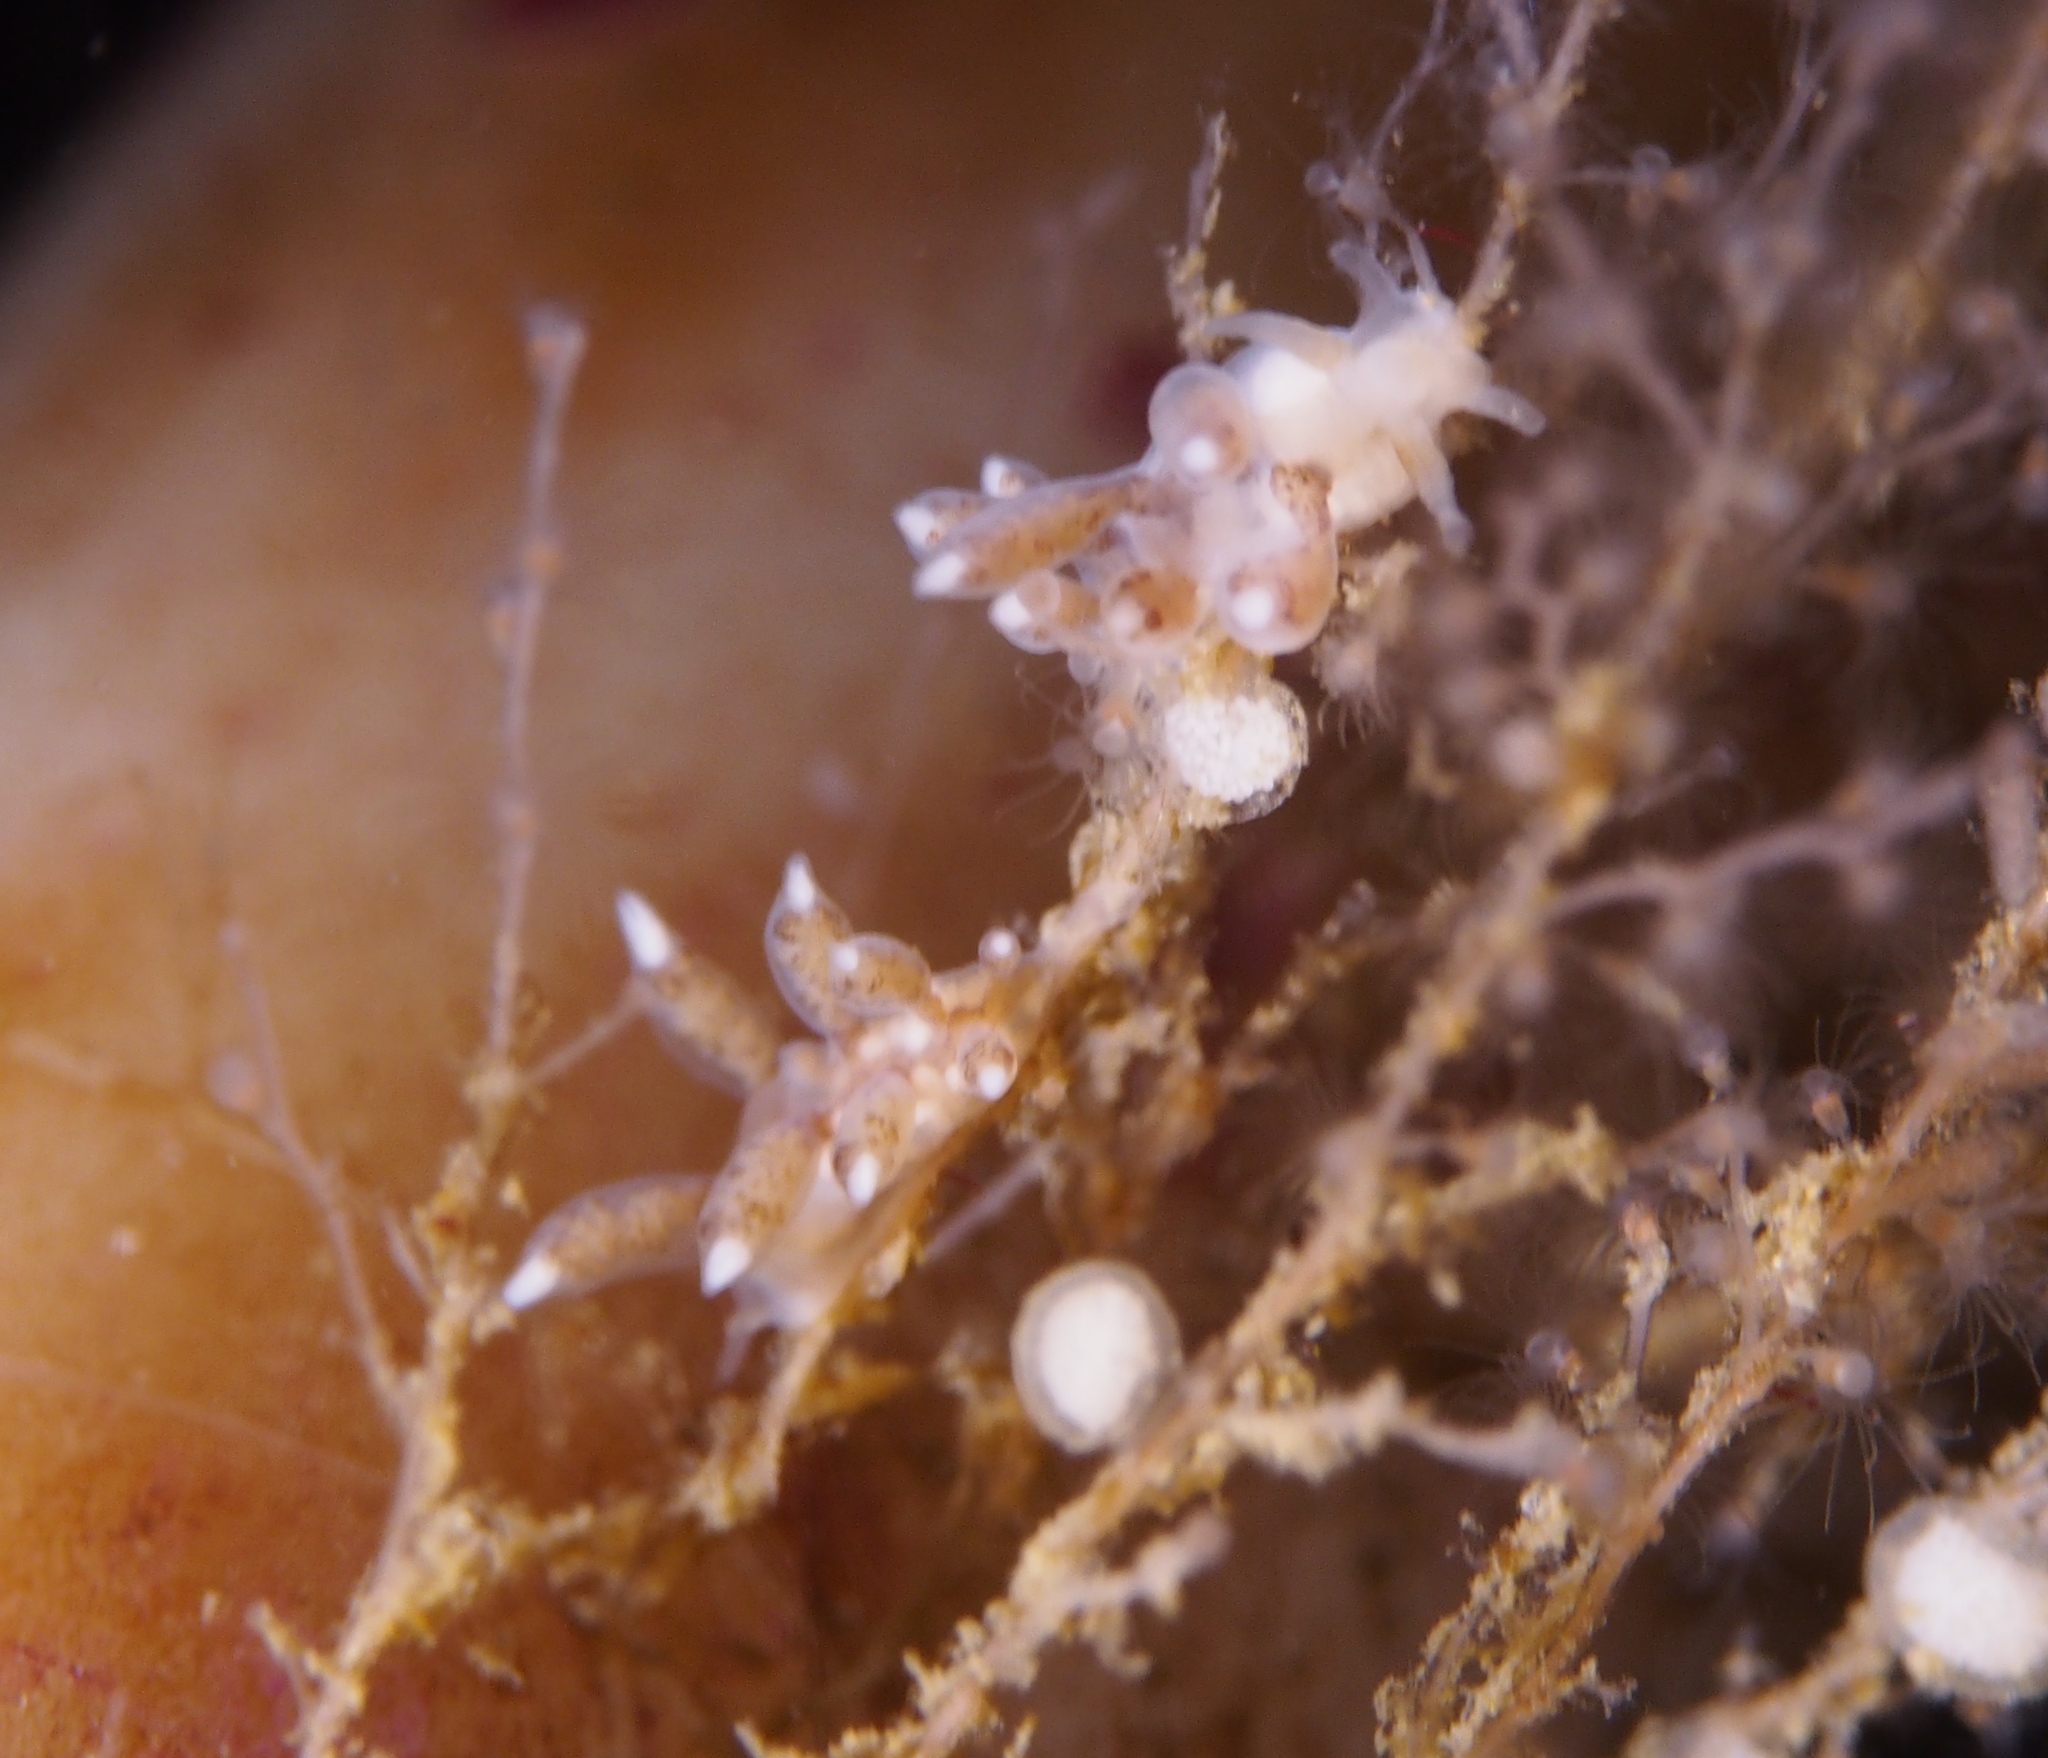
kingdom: Animalia
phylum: Mollusca
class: Gastropoda
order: Nudibranchia
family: Tergipedidae
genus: Tergipes
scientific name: Tergipes tergipes
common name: Johnston's balloon eolis
